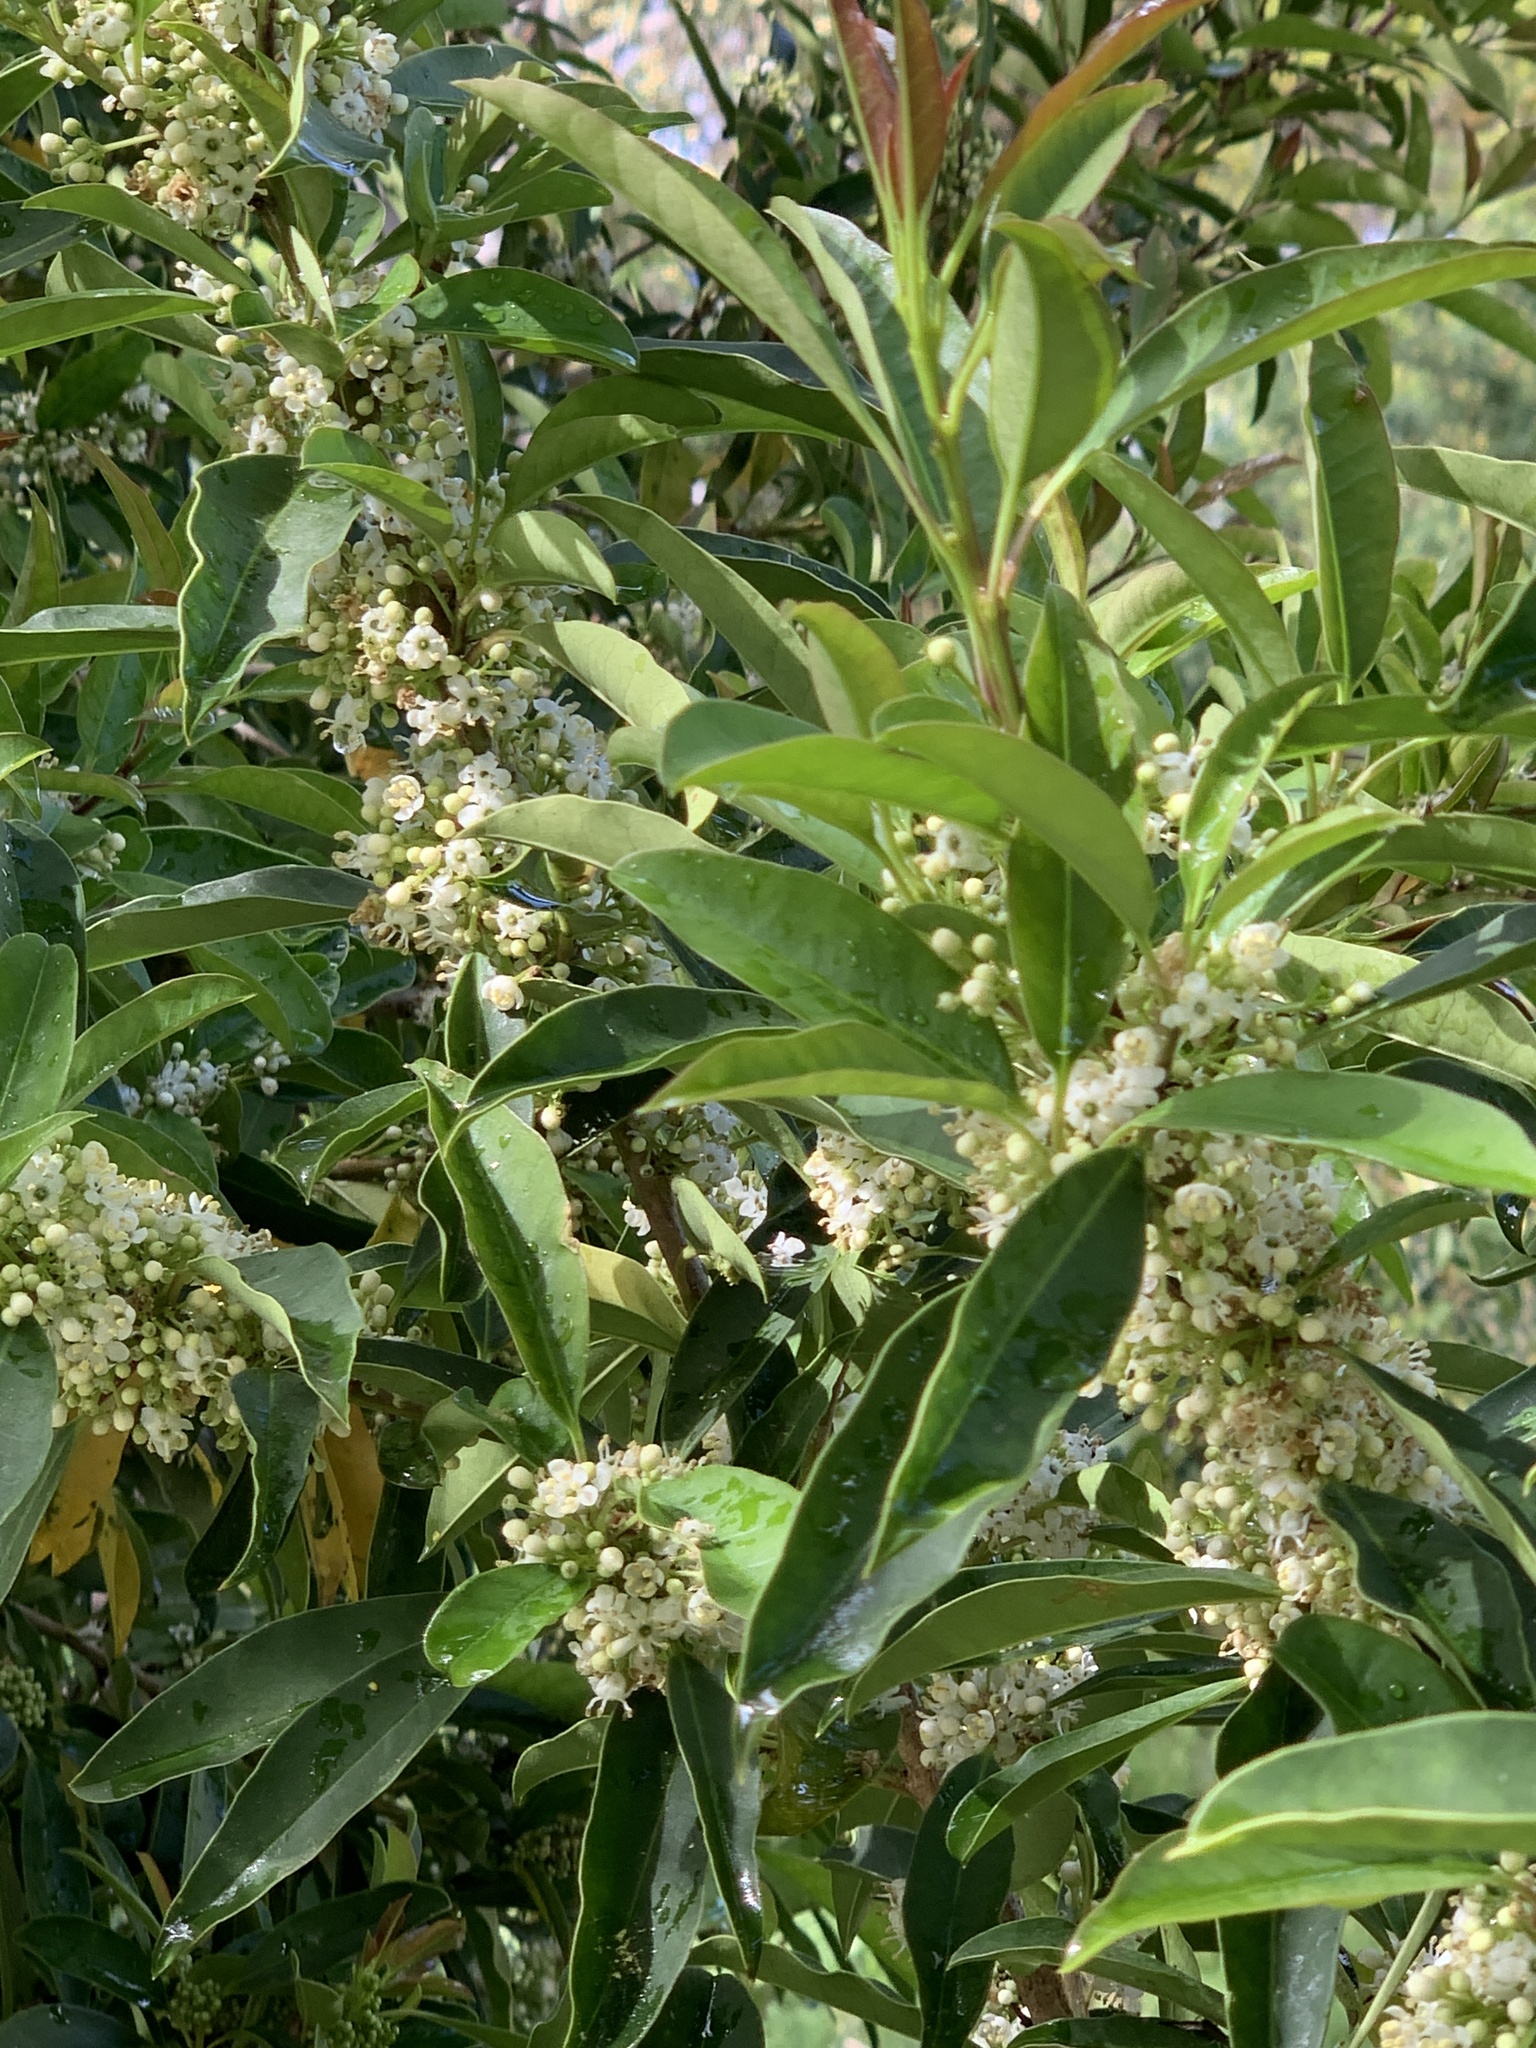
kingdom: Plantae
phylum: Tracheophyta
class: Magnoliopsida
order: Aquifoliales
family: Aquifoliaceae
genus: Ilex
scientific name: Ilex mitis
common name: African holly
